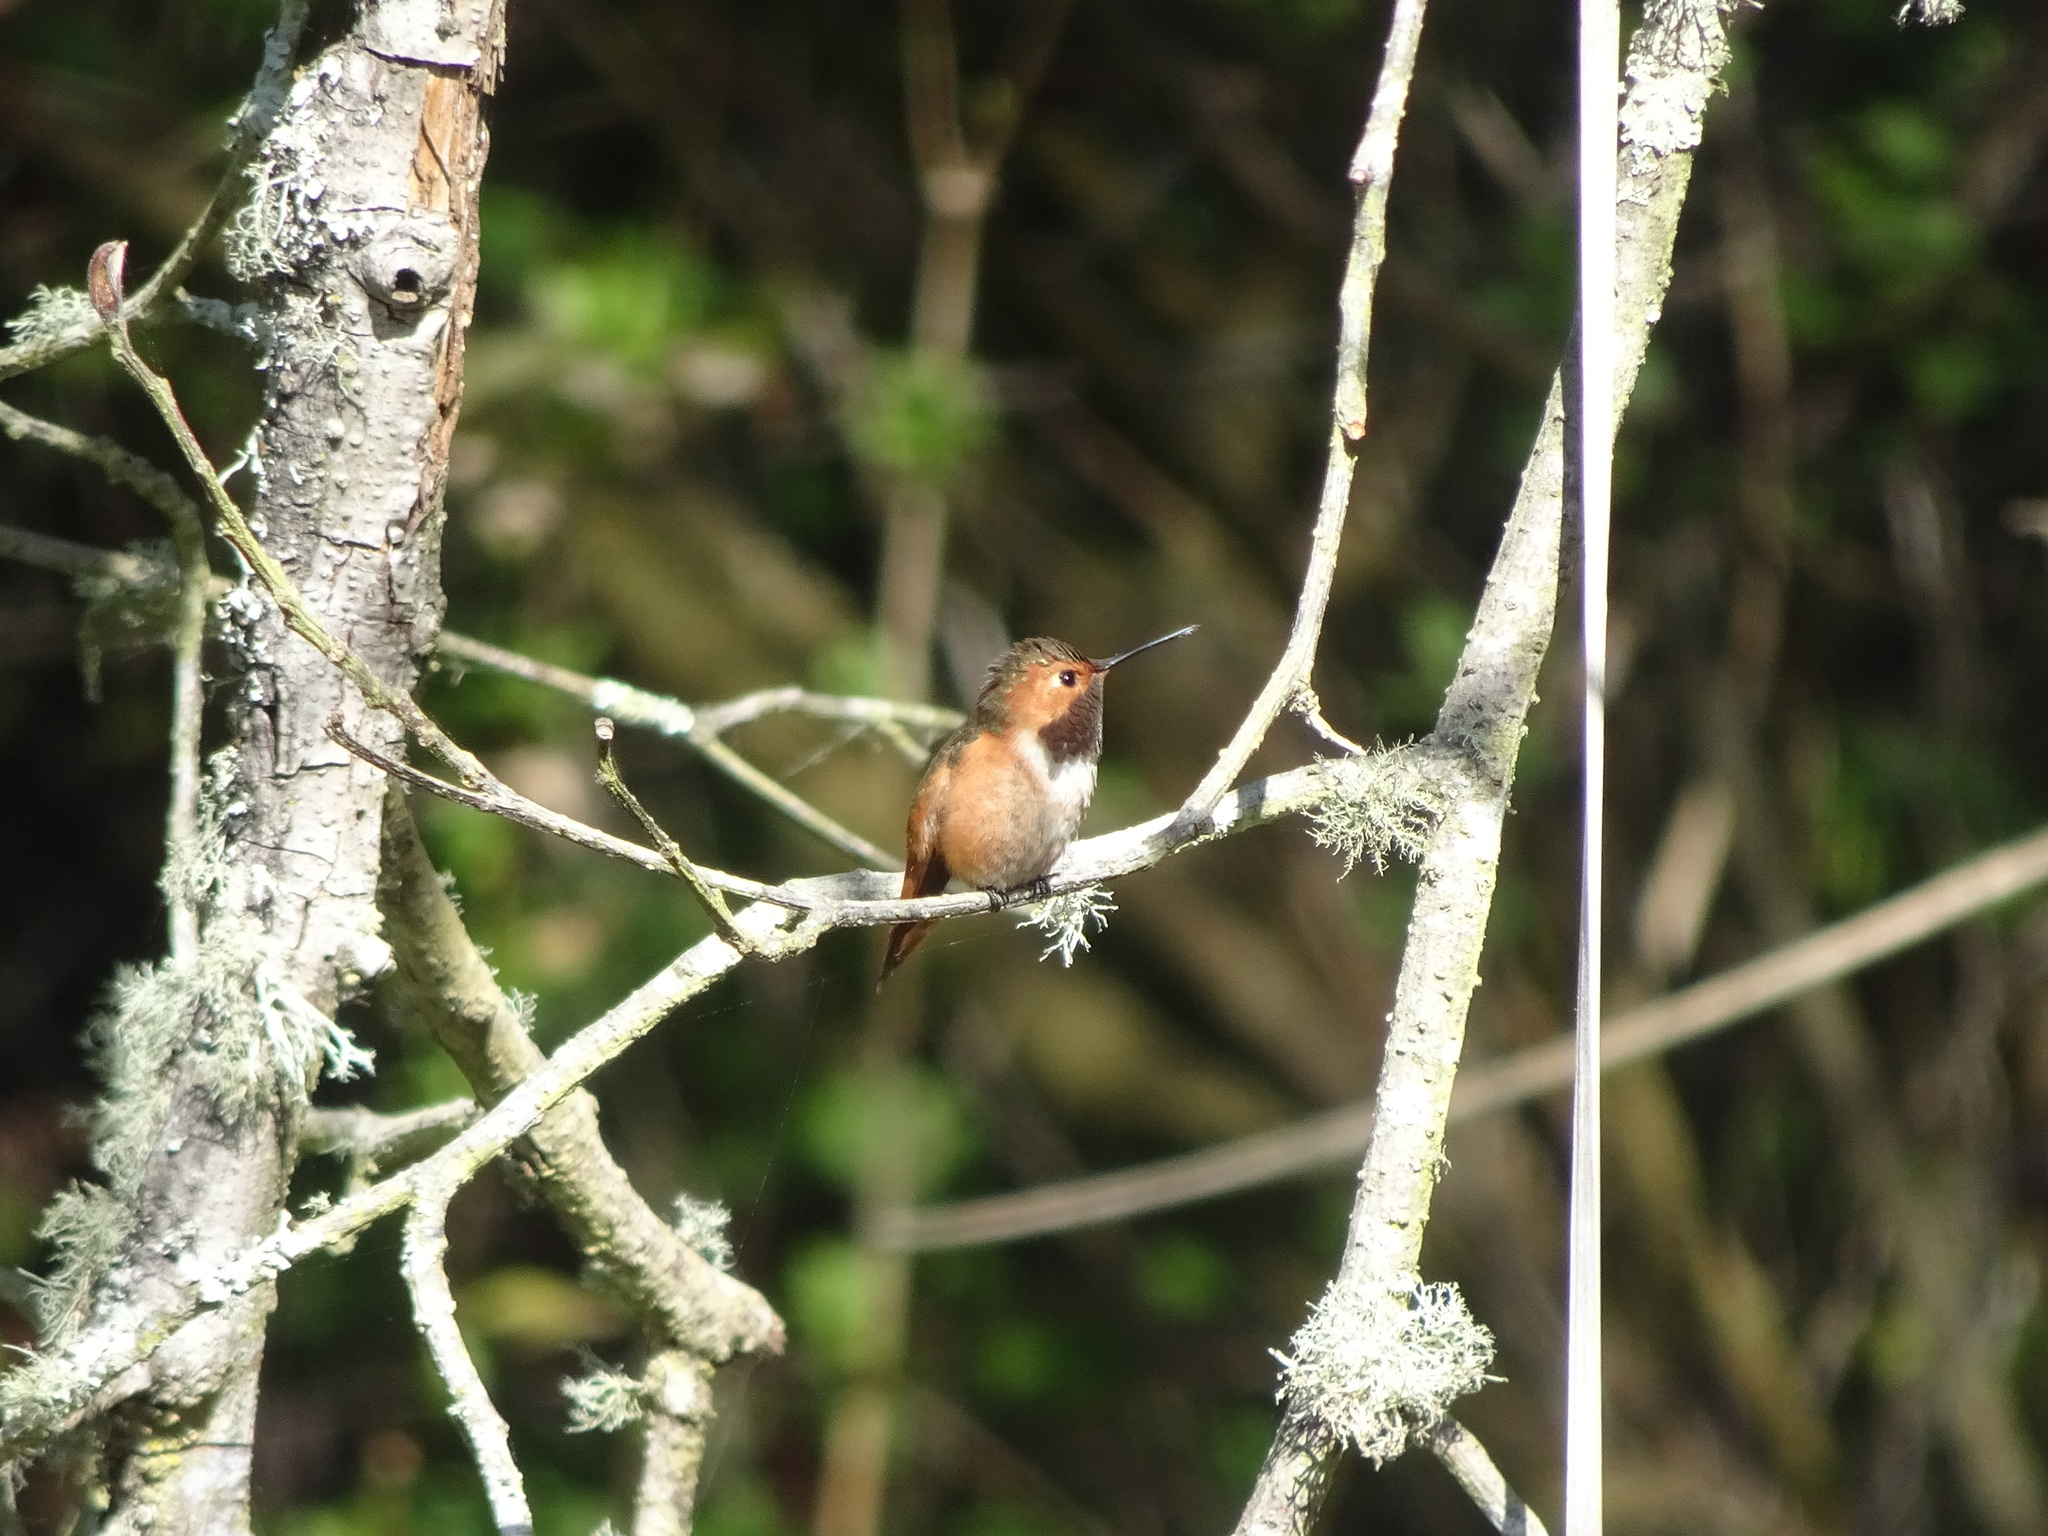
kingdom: Animalia
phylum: Chordata
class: Aves
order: Apodiformes
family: Trochilidae
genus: Selasphorus
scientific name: Selasphorus sasin
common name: Allen's hummingbird
